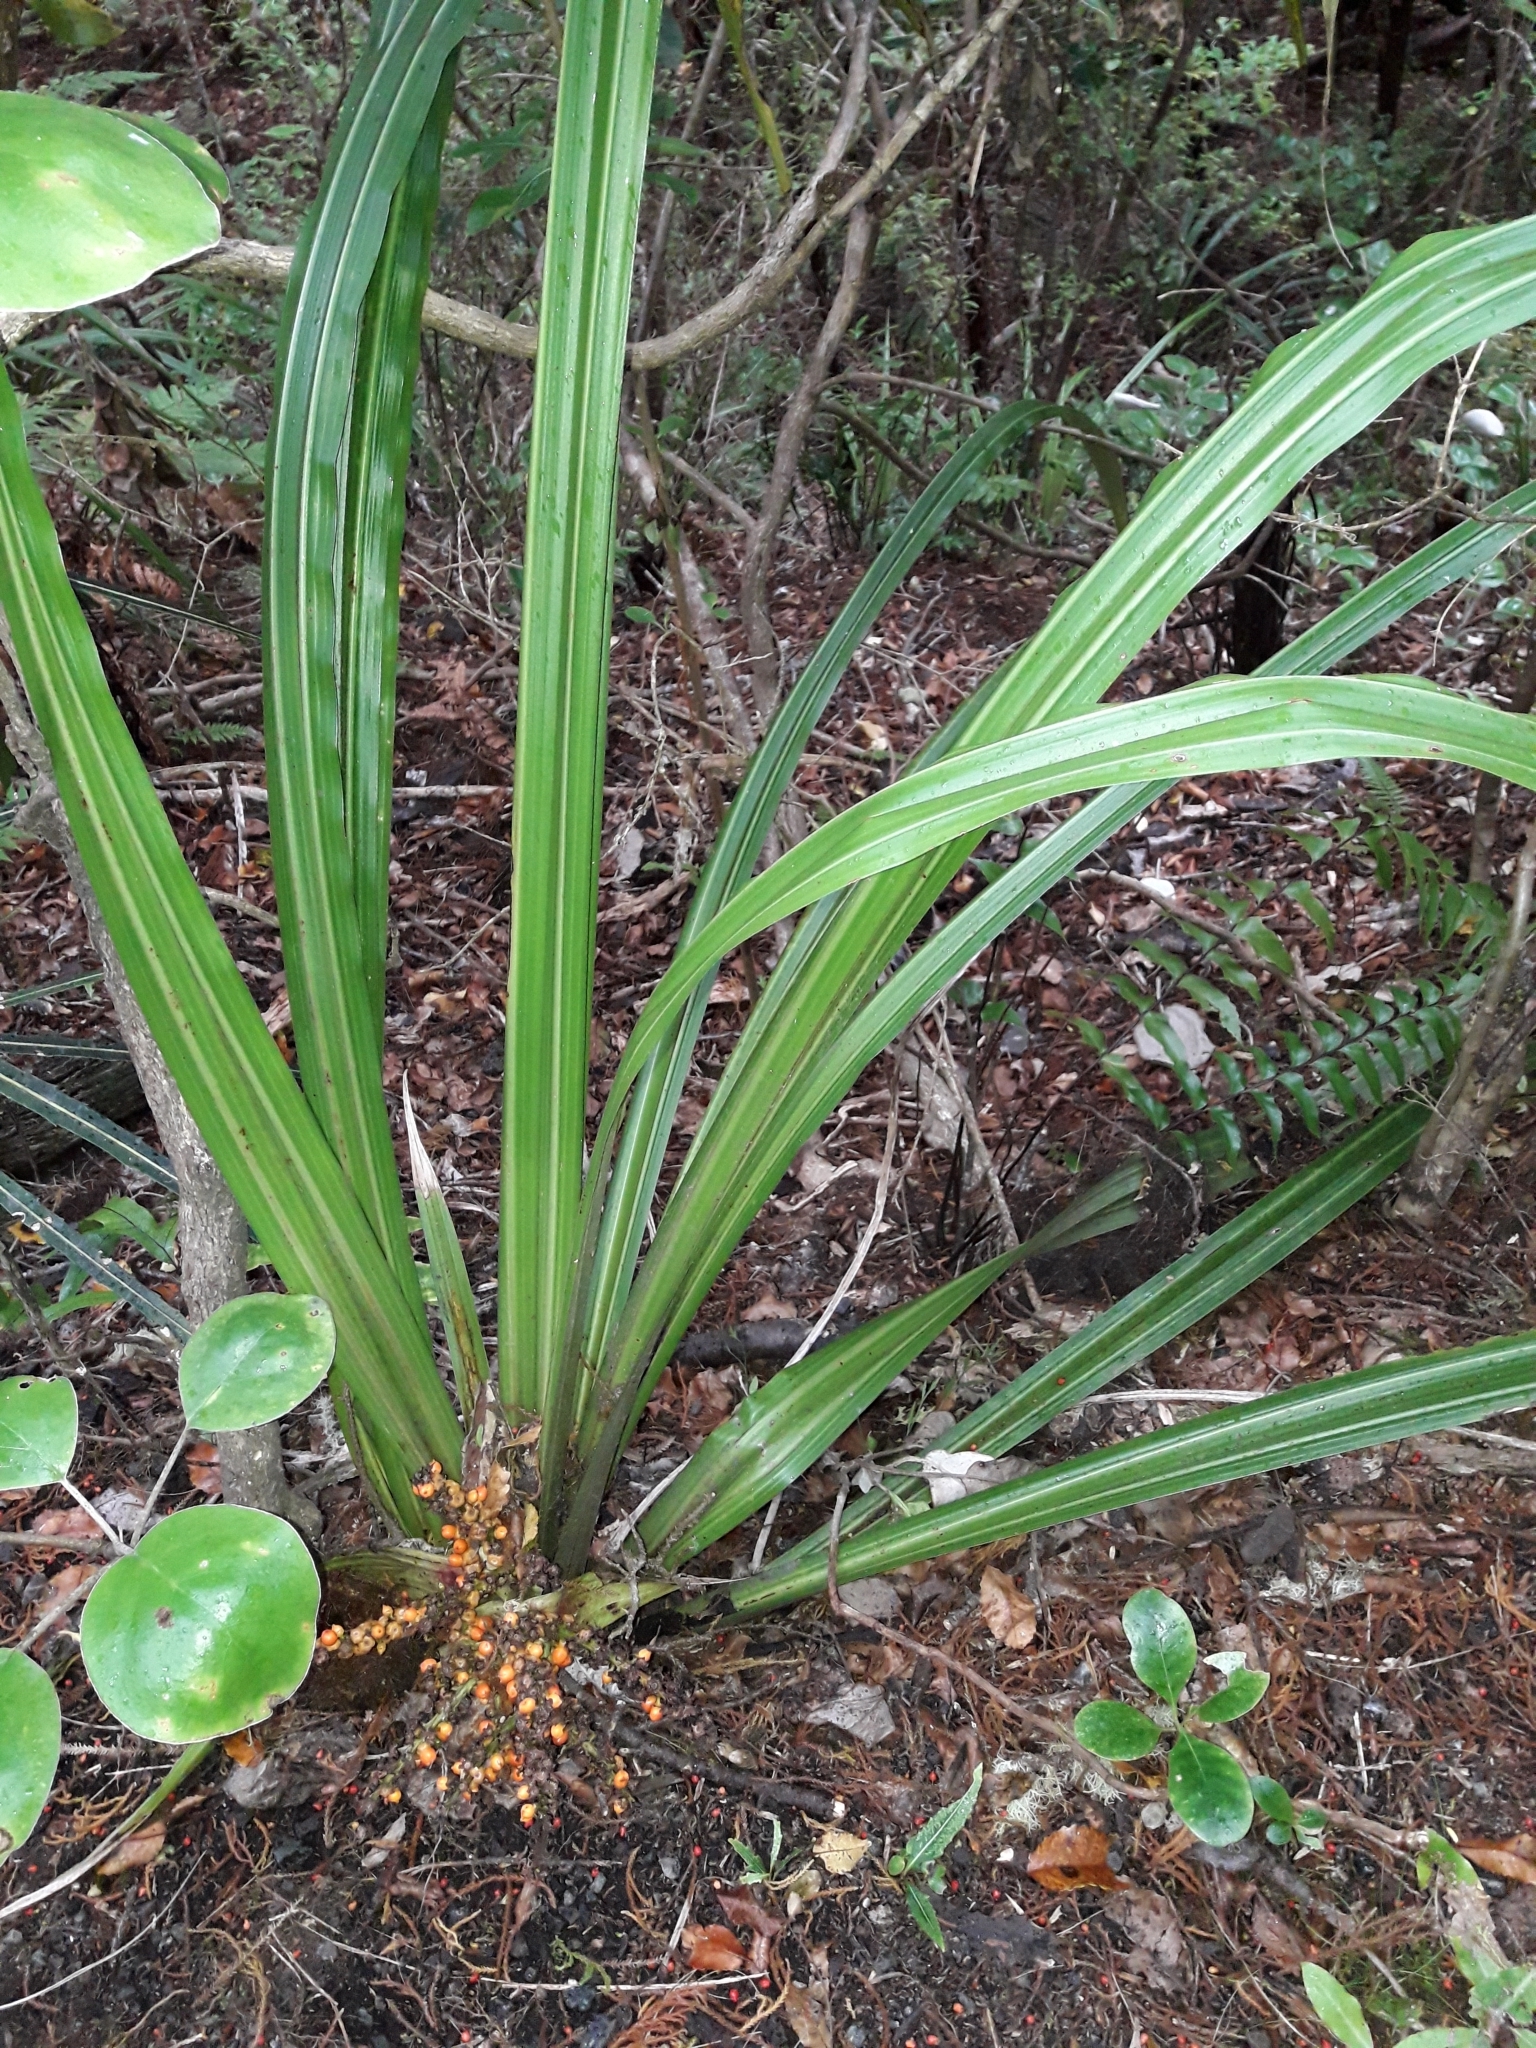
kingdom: Plantae
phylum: Tracheophyta
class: Liliopsida
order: Asparagales
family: Asteliaceae
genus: Astelia
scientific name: Astelia fragrans
